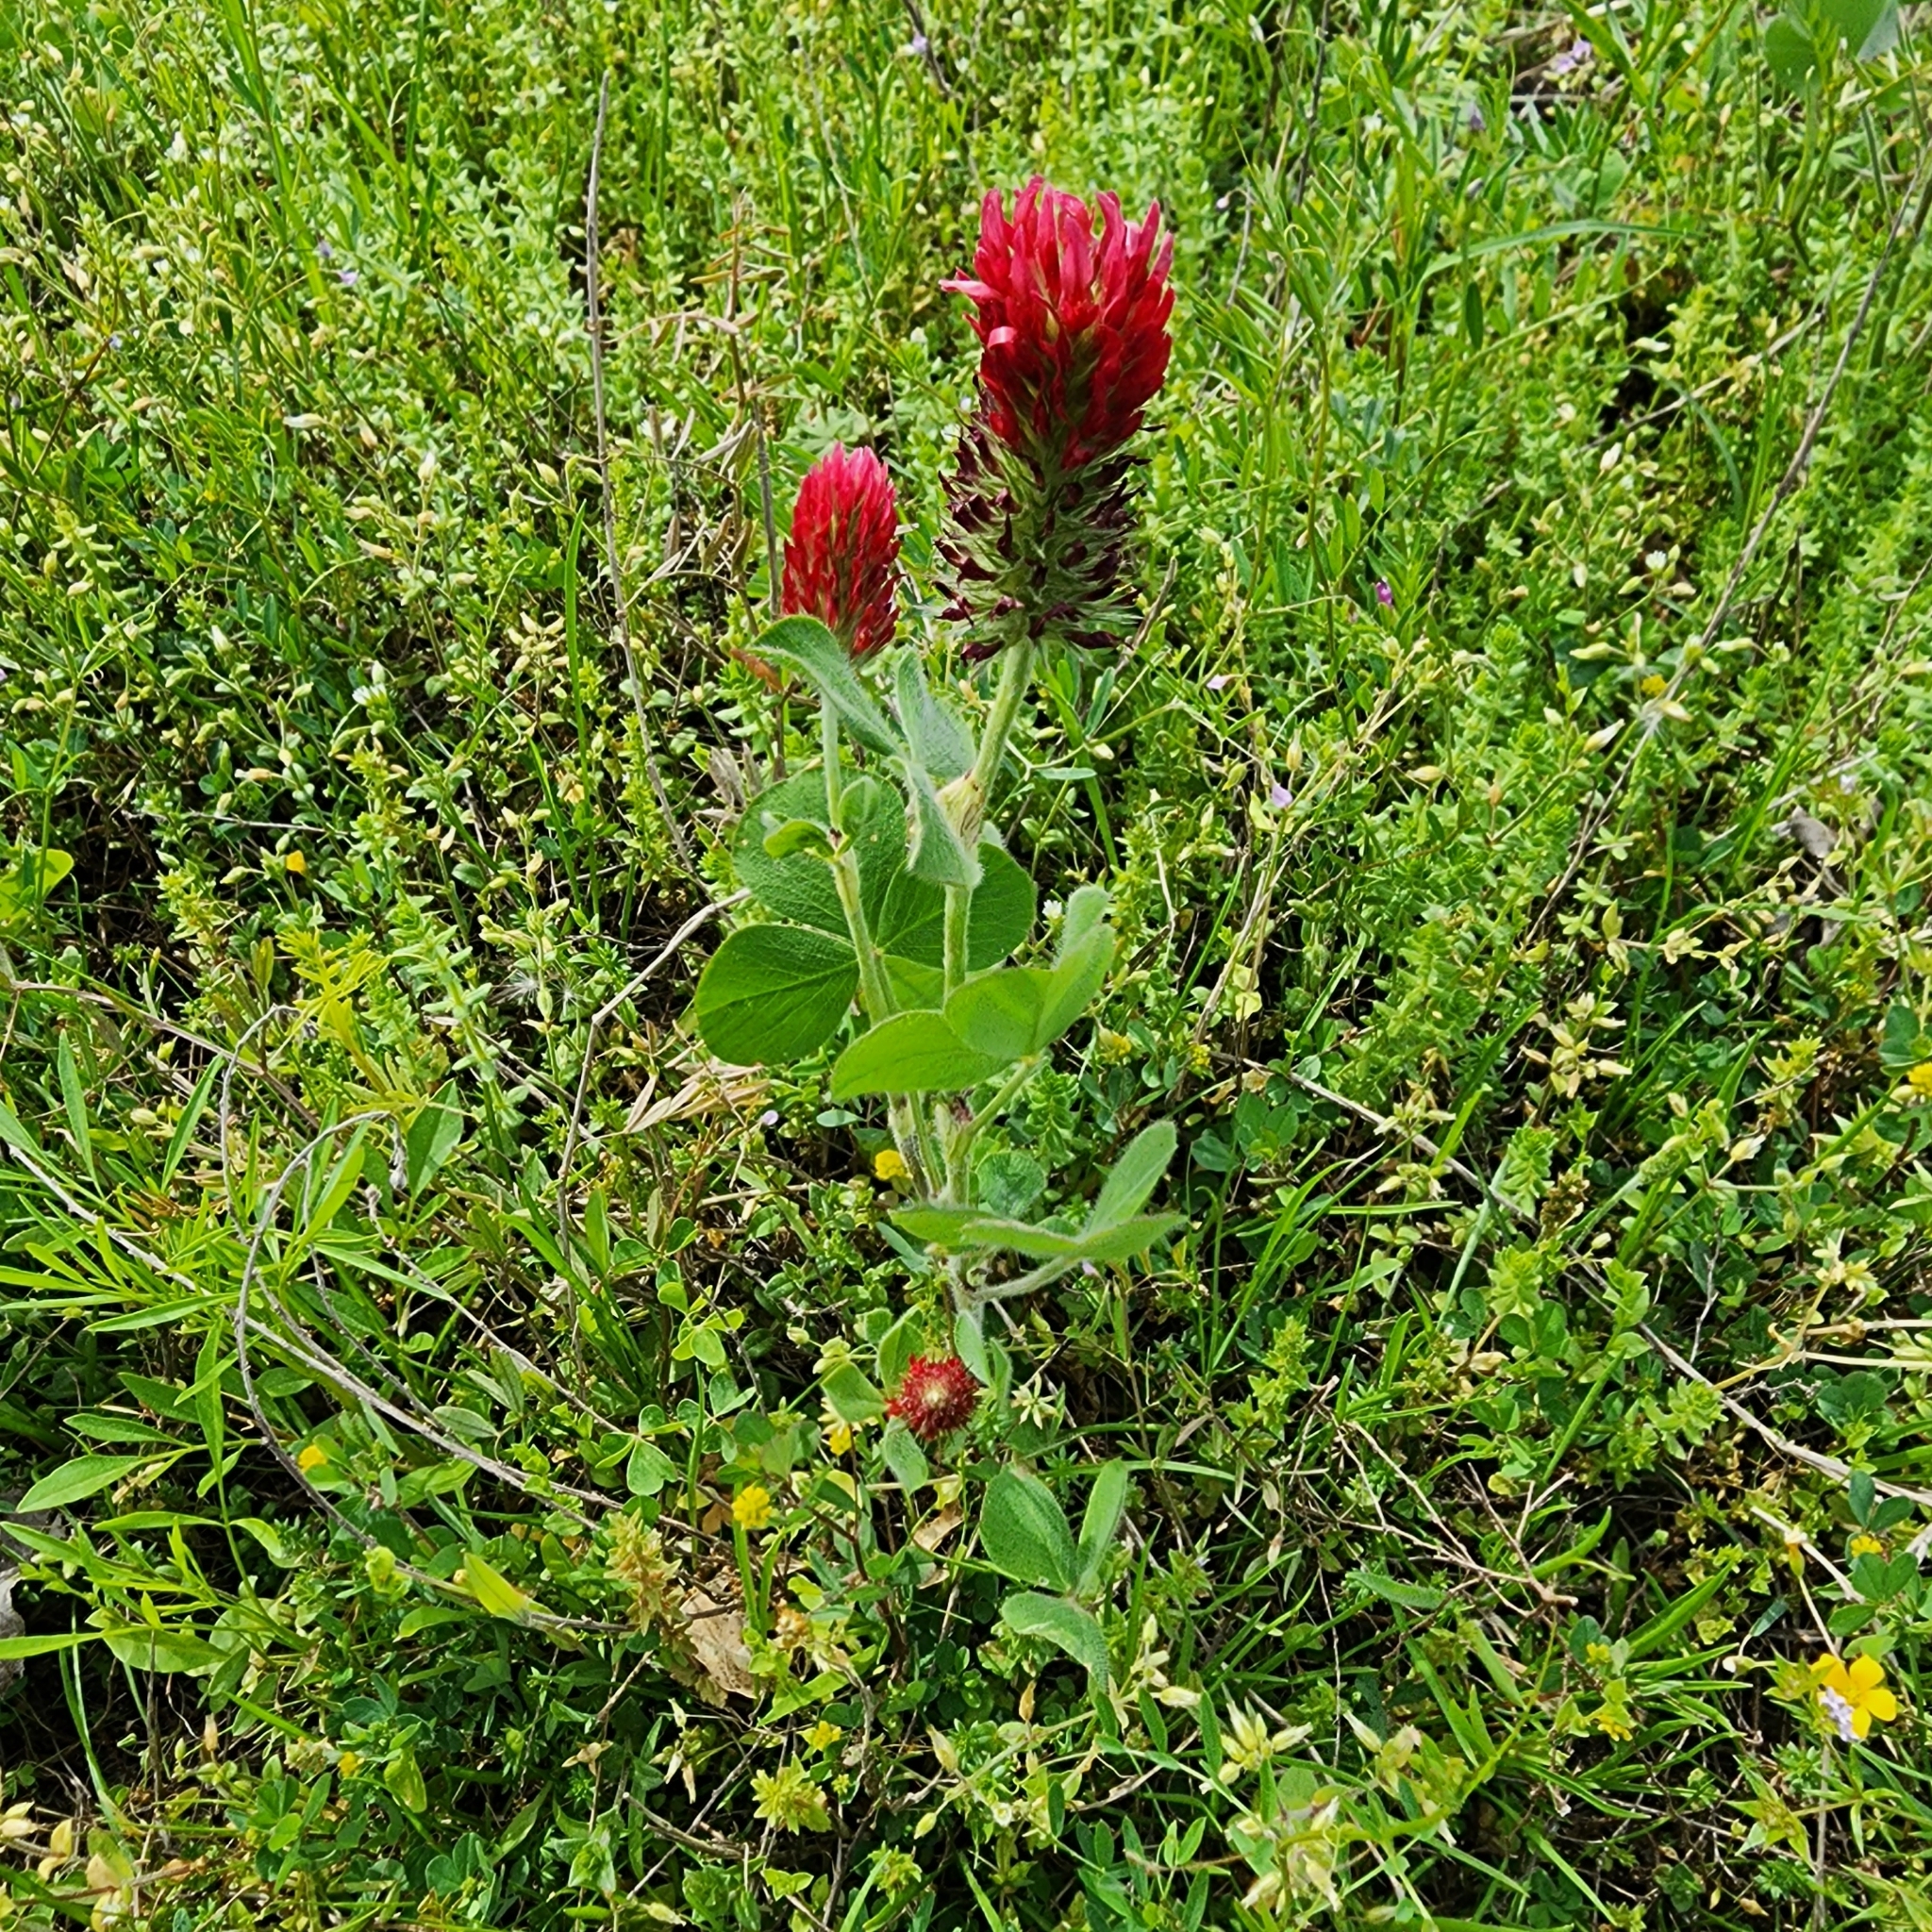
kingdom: Plantae
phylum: Tracheophyta
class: Magnoliopsida
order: Fabales
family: Fabaceae
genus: Trifolium
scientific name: Trifolium incarnatum
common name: Crimson clover
